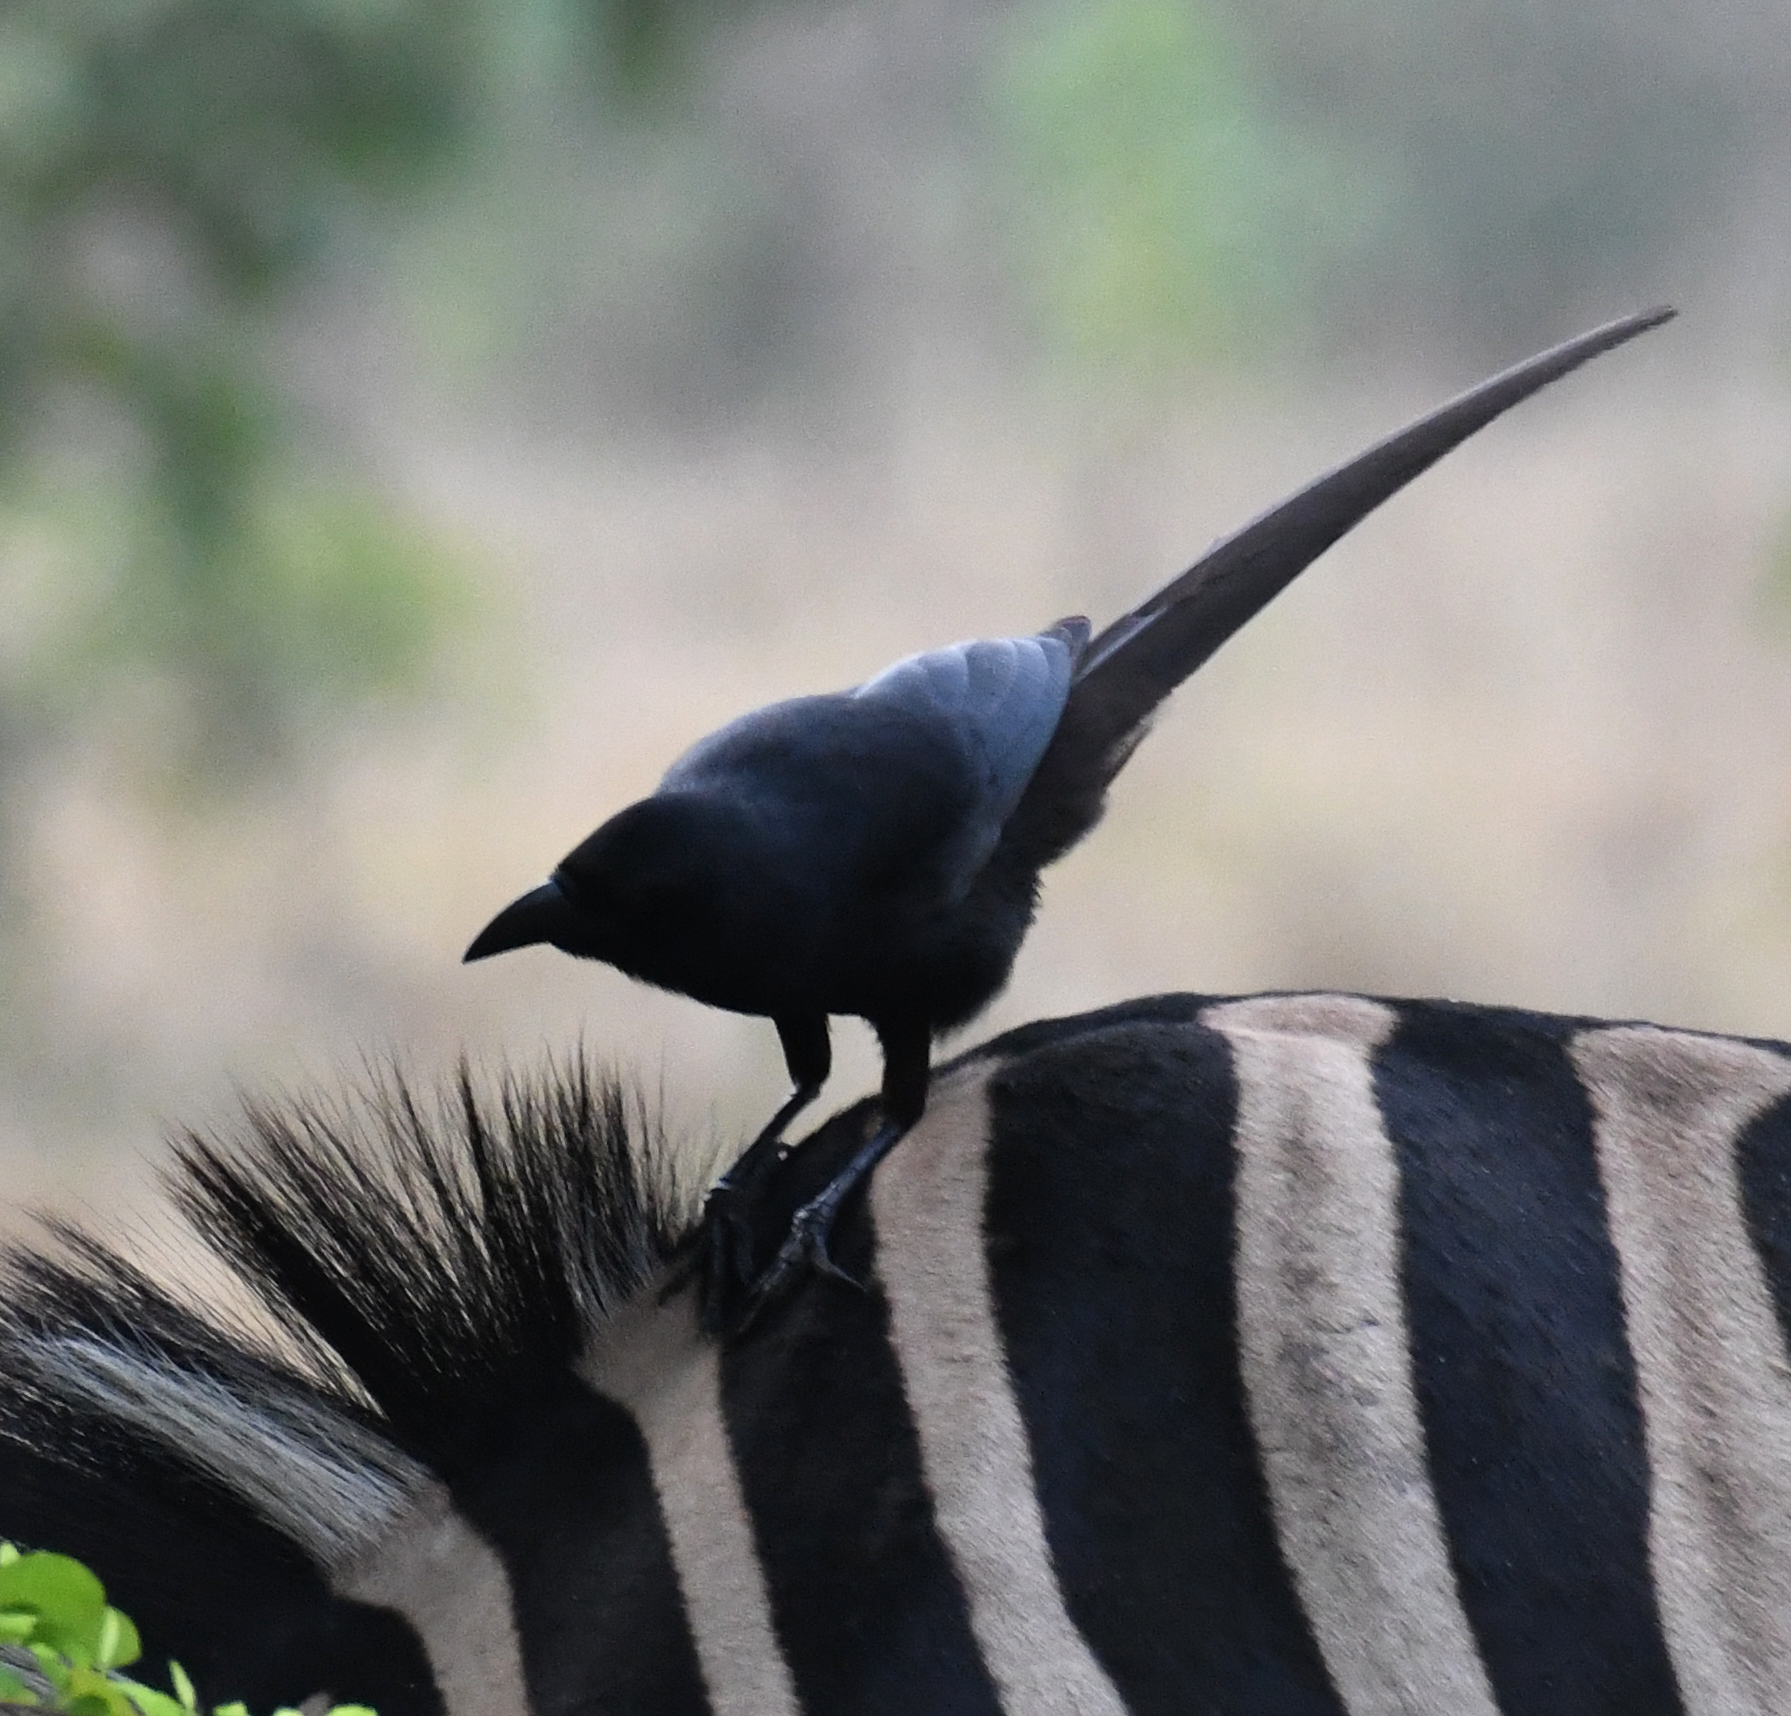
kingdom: Animalia
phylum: Chordata
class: Aves
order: Passeriformes
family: Corvidae
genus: Ptilostomus
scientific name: Ptilostomus afer
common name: Piapiac
